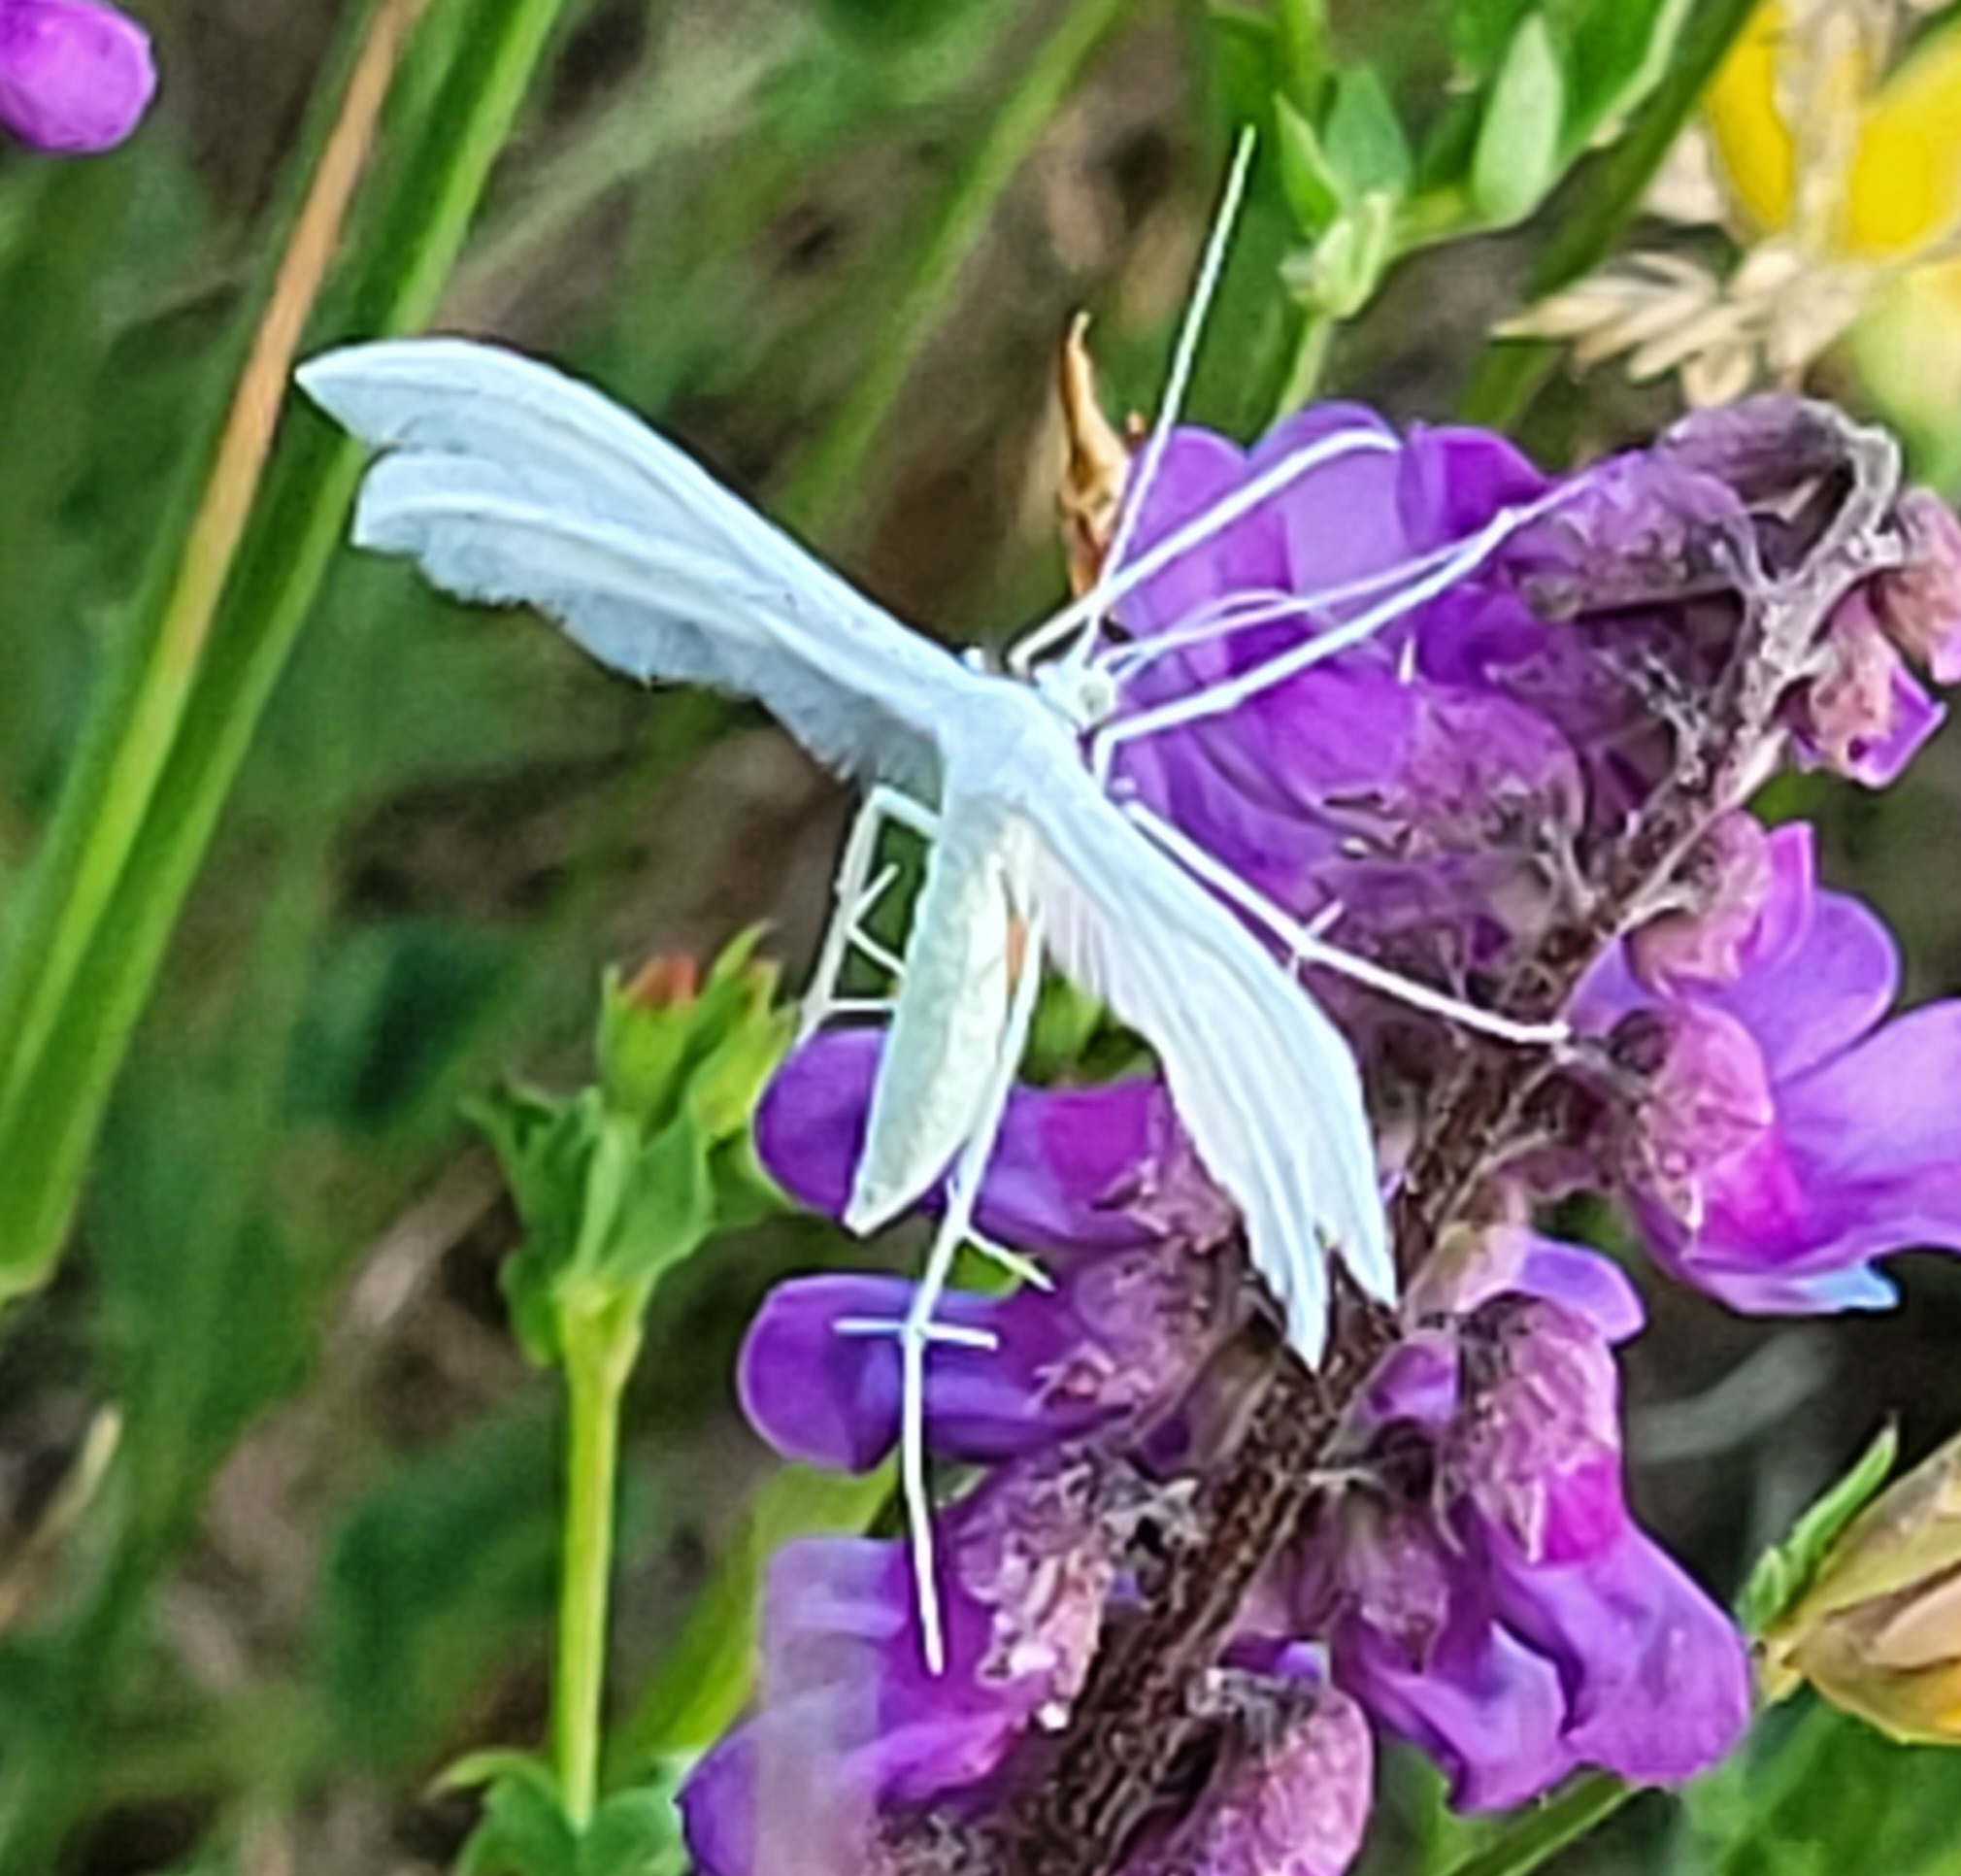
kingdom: Animalia
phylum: Arthropoda
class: Insecta
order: Lepidoptera
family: Pterophoridae
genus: Pterophorus
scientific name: Pterophorus pentadactyla
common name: White plume moth
